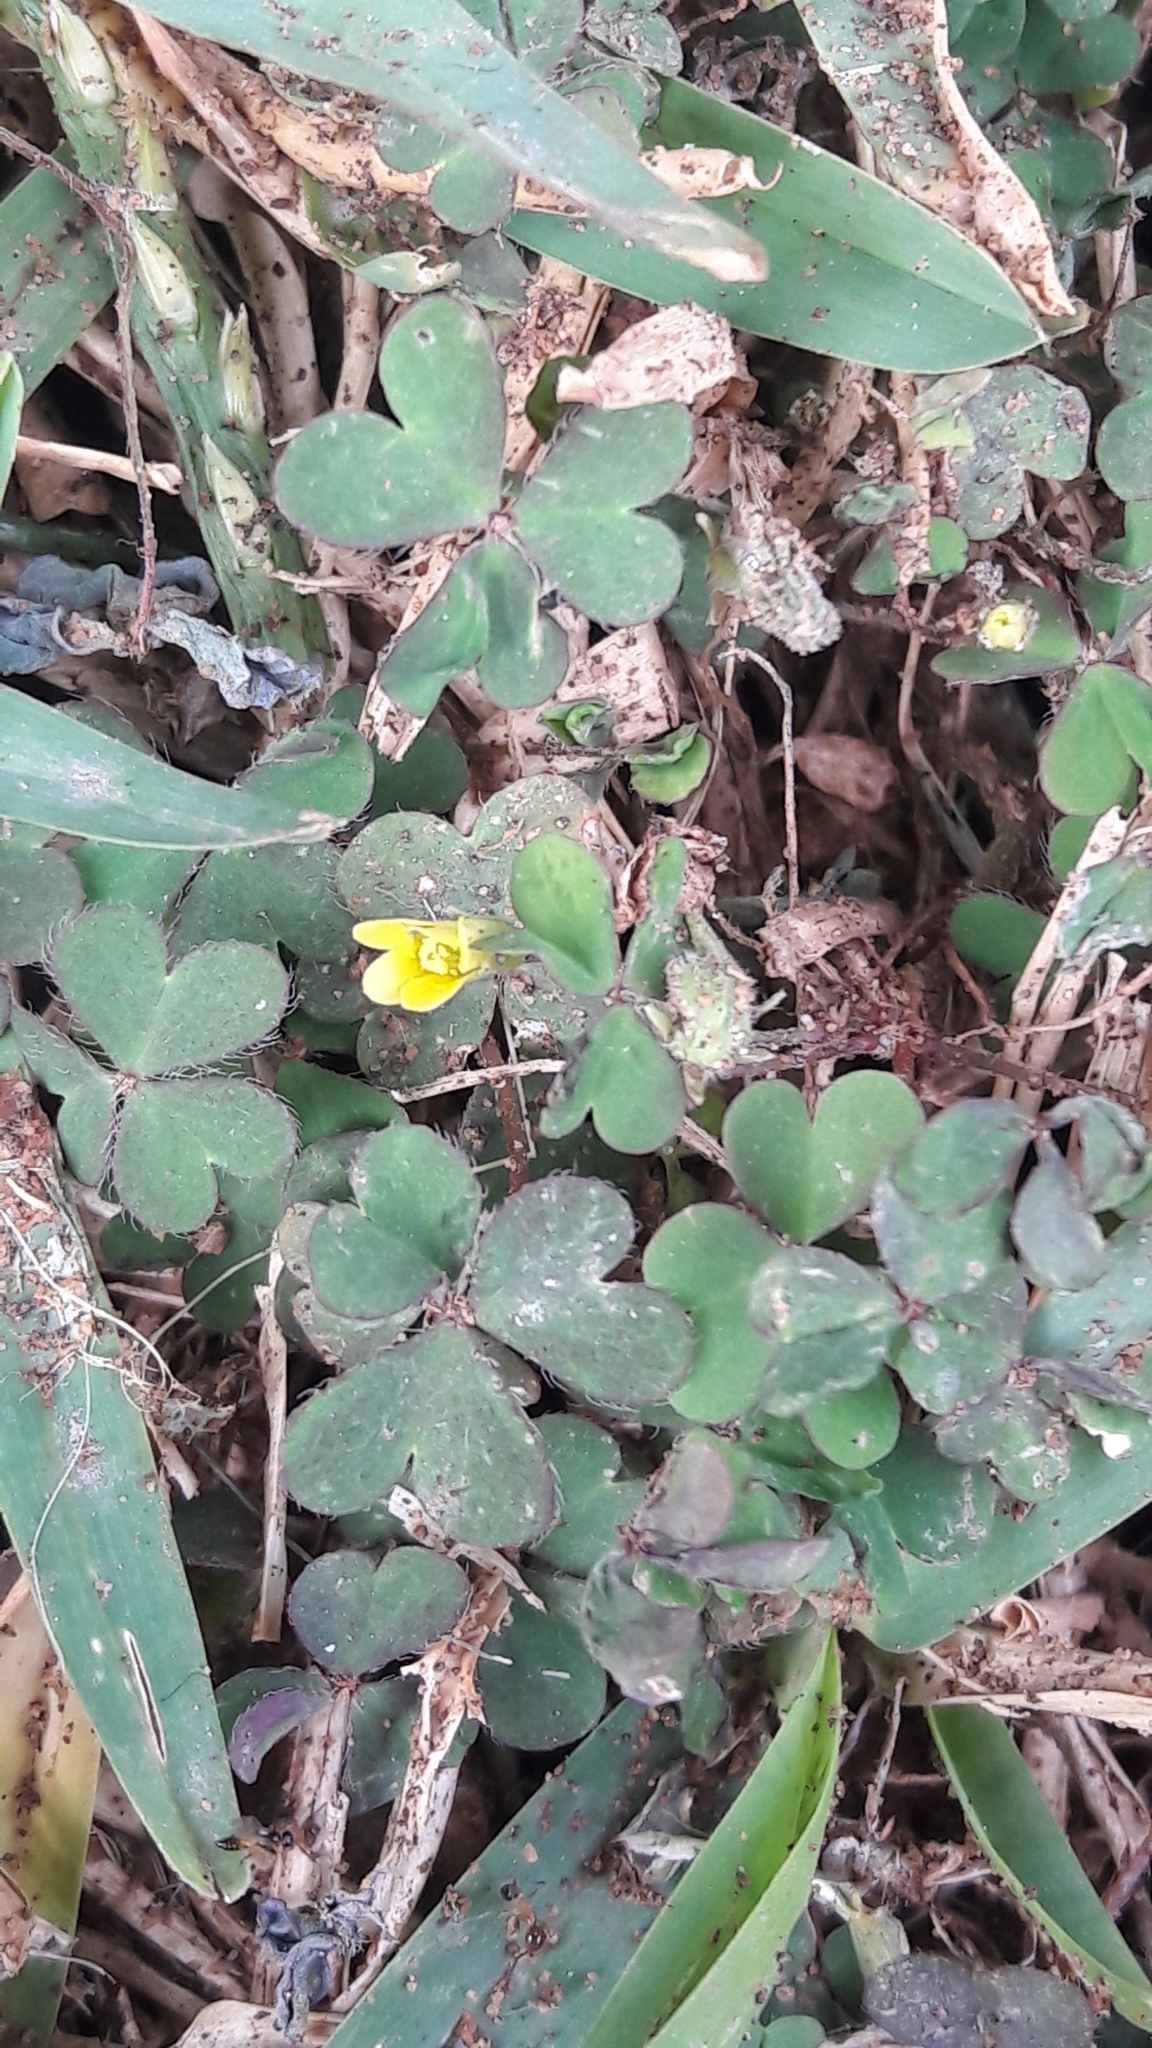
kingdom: Plantae
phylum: Tracheophyta
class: Magnoliopsida
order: Oxalidales
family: Oxalidaceae
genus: Oxalis
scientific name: Oxalis corniculata
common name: Procumbent yellow-sorrel
